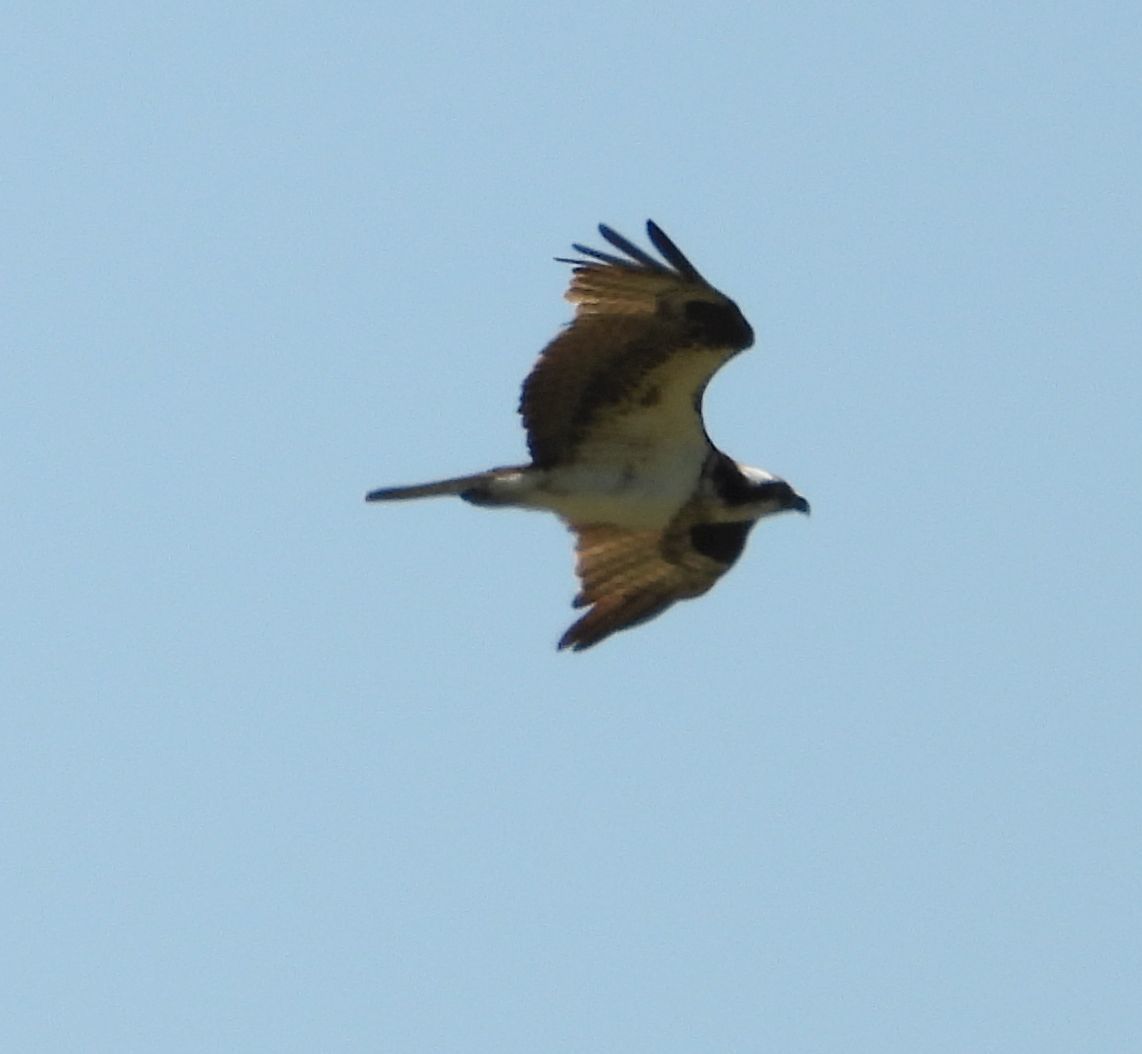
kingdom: Animalia
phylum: Chordata
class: Aves
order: Accipitriformes
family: Pandionidae
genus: Pandion
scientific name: Pandion haliaetus
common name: Osprey
